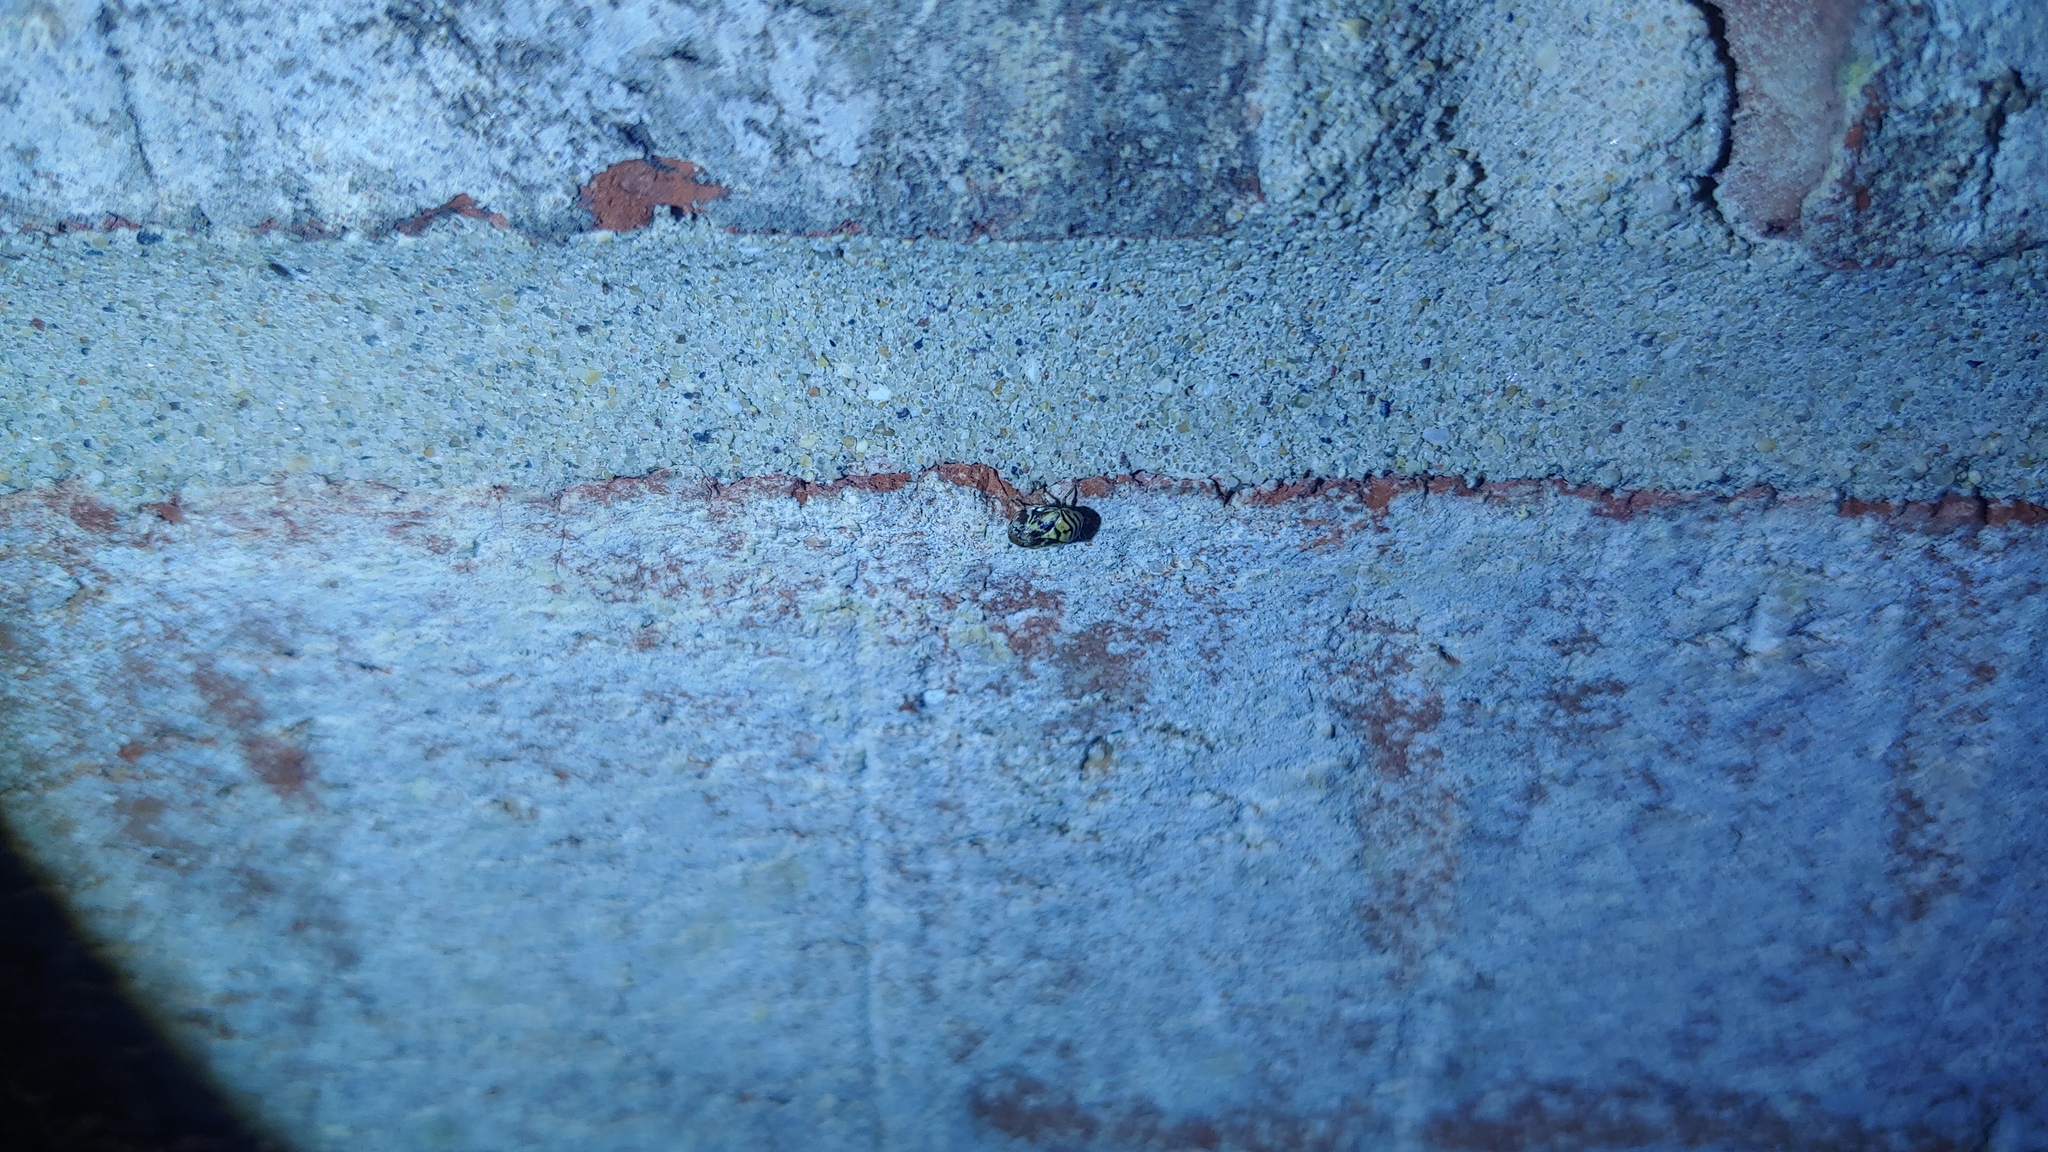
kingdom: Animalia
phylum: Arthropoda
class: Insecta
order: Hemiptera
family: Clastopteridae
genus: Clastoptera
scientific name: Clastoptera arborina
